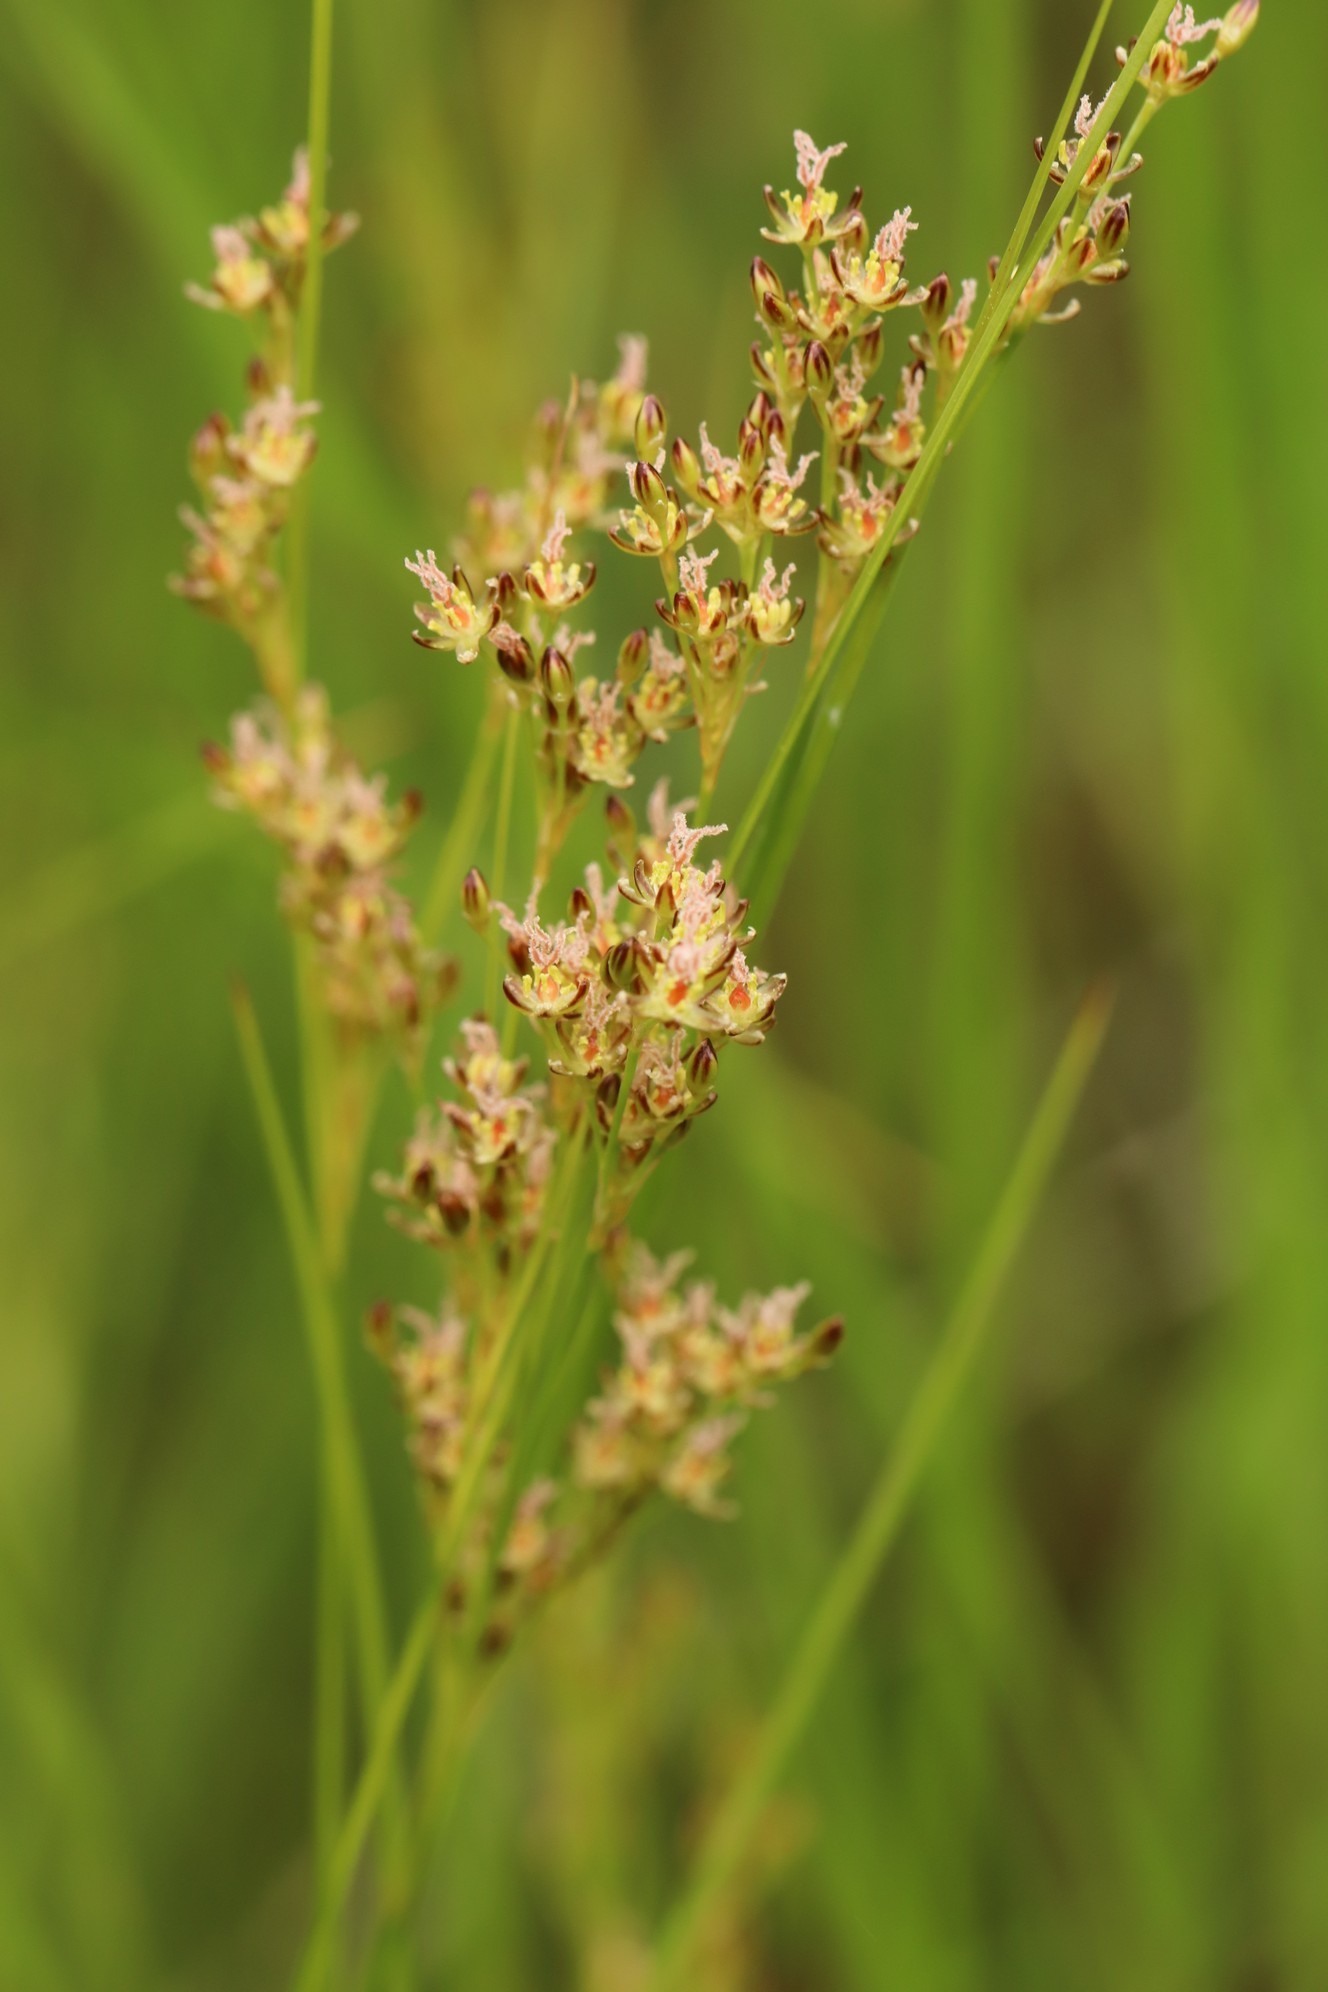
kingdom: Plantae
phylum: Tracheophyta
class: Liliopsida
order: Poales
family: Juncaceae
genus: Juncus
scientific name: Juncus compressus
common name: Round-fruited rush
